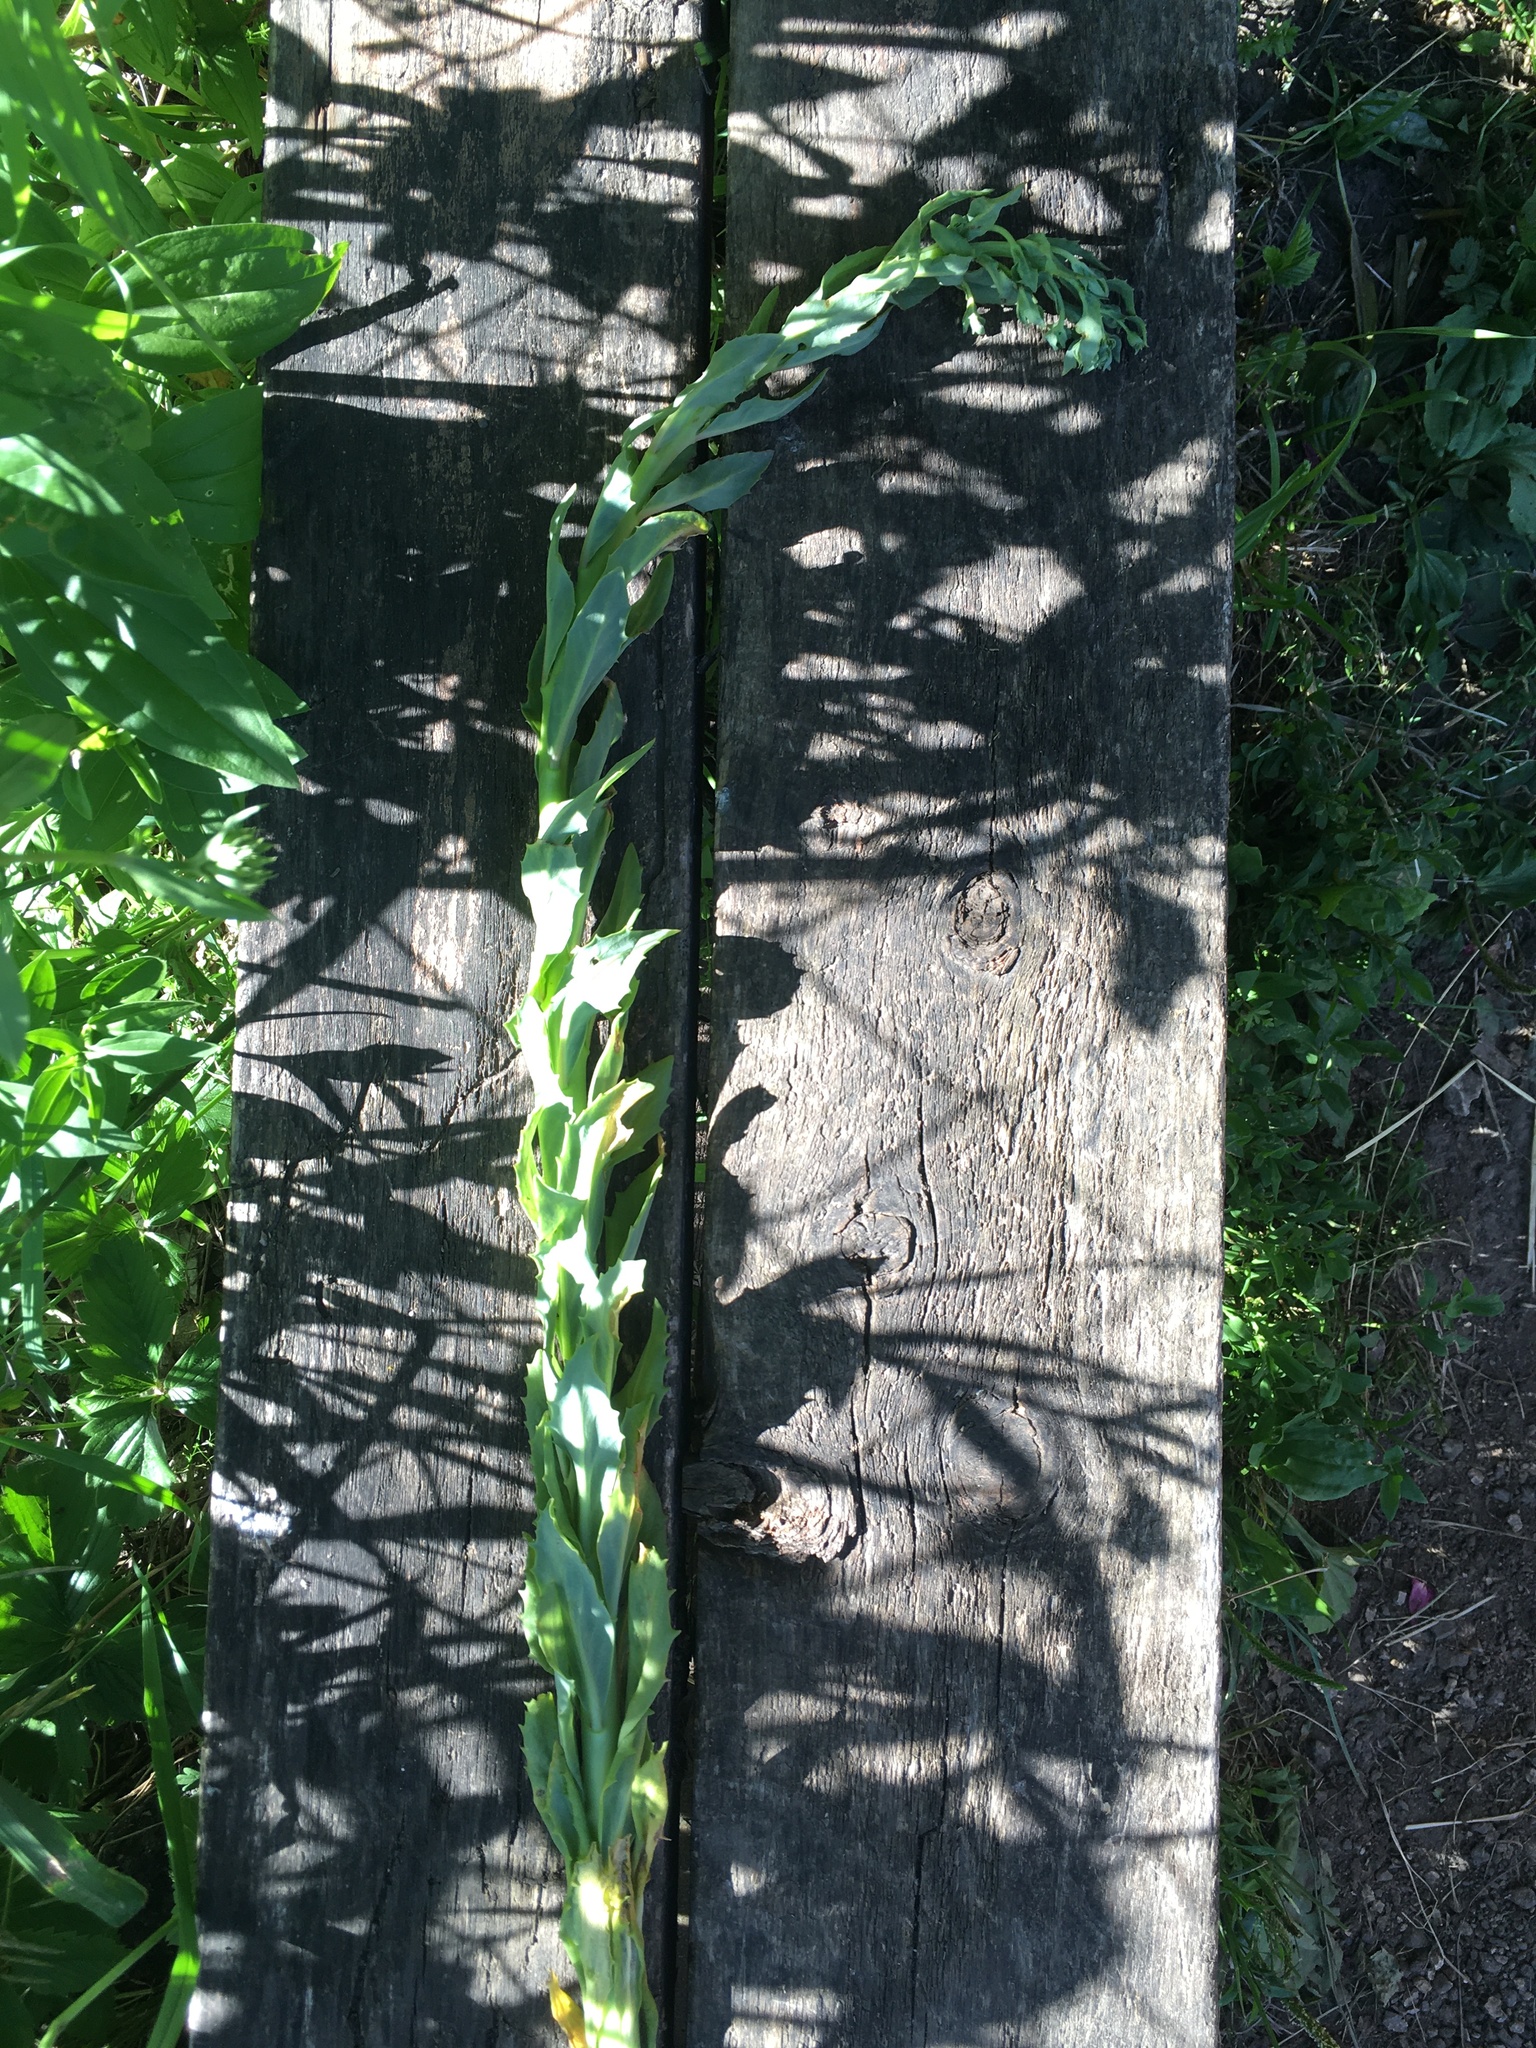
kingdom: Plantae
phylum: Tracheophyta
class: Magnoliopsida
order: Saxifragales
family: Crassulaceae
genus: Hylotelephium
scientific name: Hylotelephium telephium
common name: Live-forever
